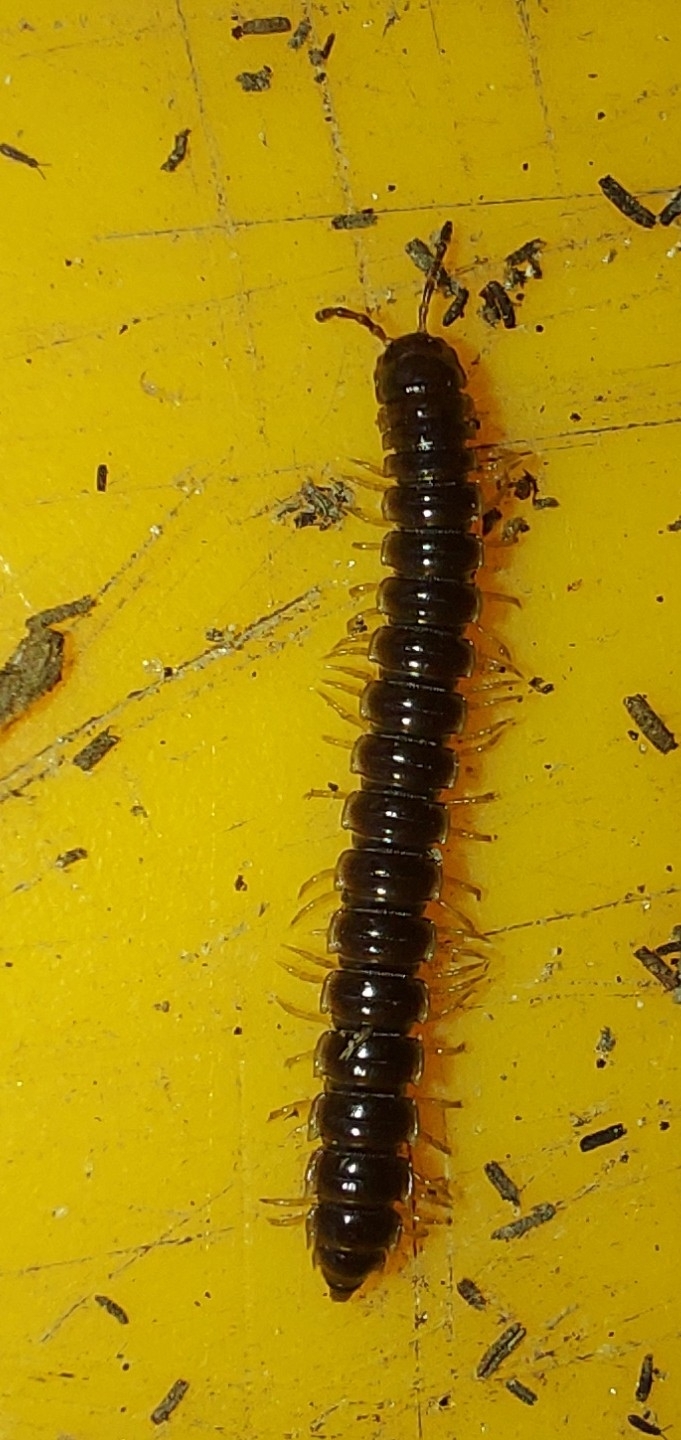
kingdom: Animalia
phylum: Arthropoda
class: Diplopoda
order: Polydesmida
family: Paradoxosomatidae
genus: Oxidus
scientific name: Oxidus gracilis
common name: Greenhouse millipede
